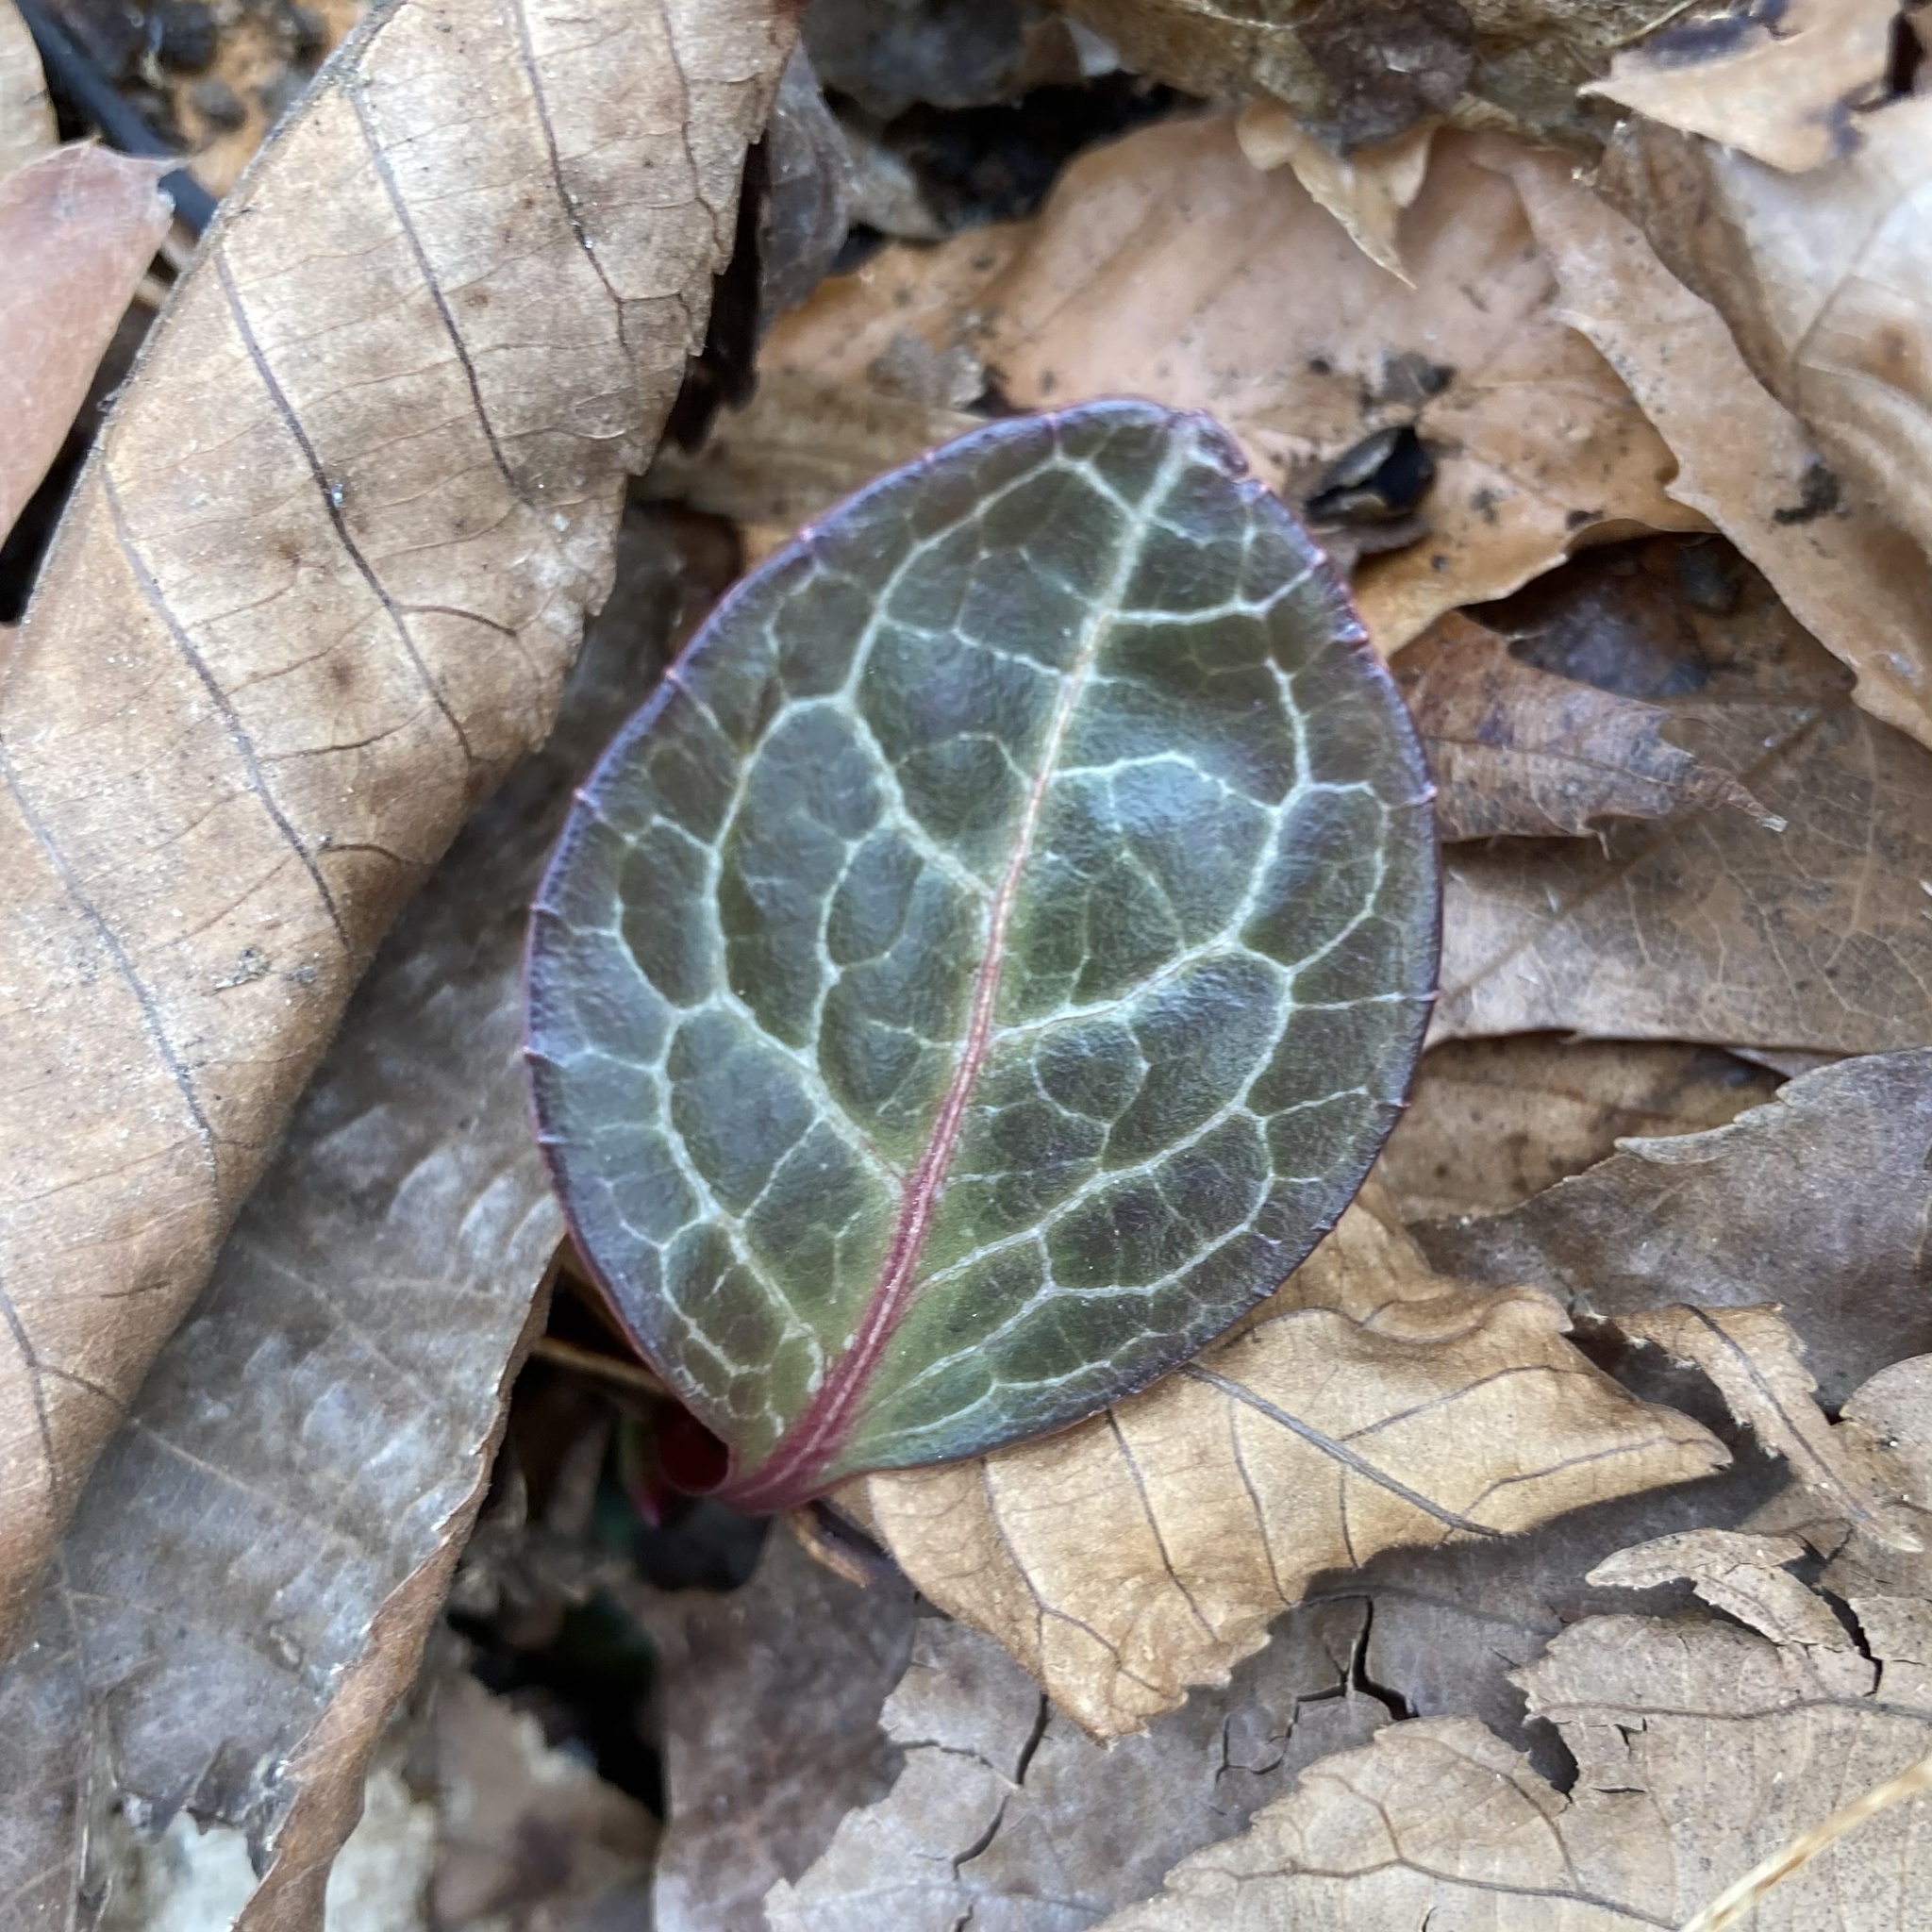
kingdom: Plantae
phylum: Tracheophyta
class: Magnoliopsida
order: Ericales
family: Ericaceae
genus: Pyrola
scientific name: Pyrola americana
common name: American wintergreen
